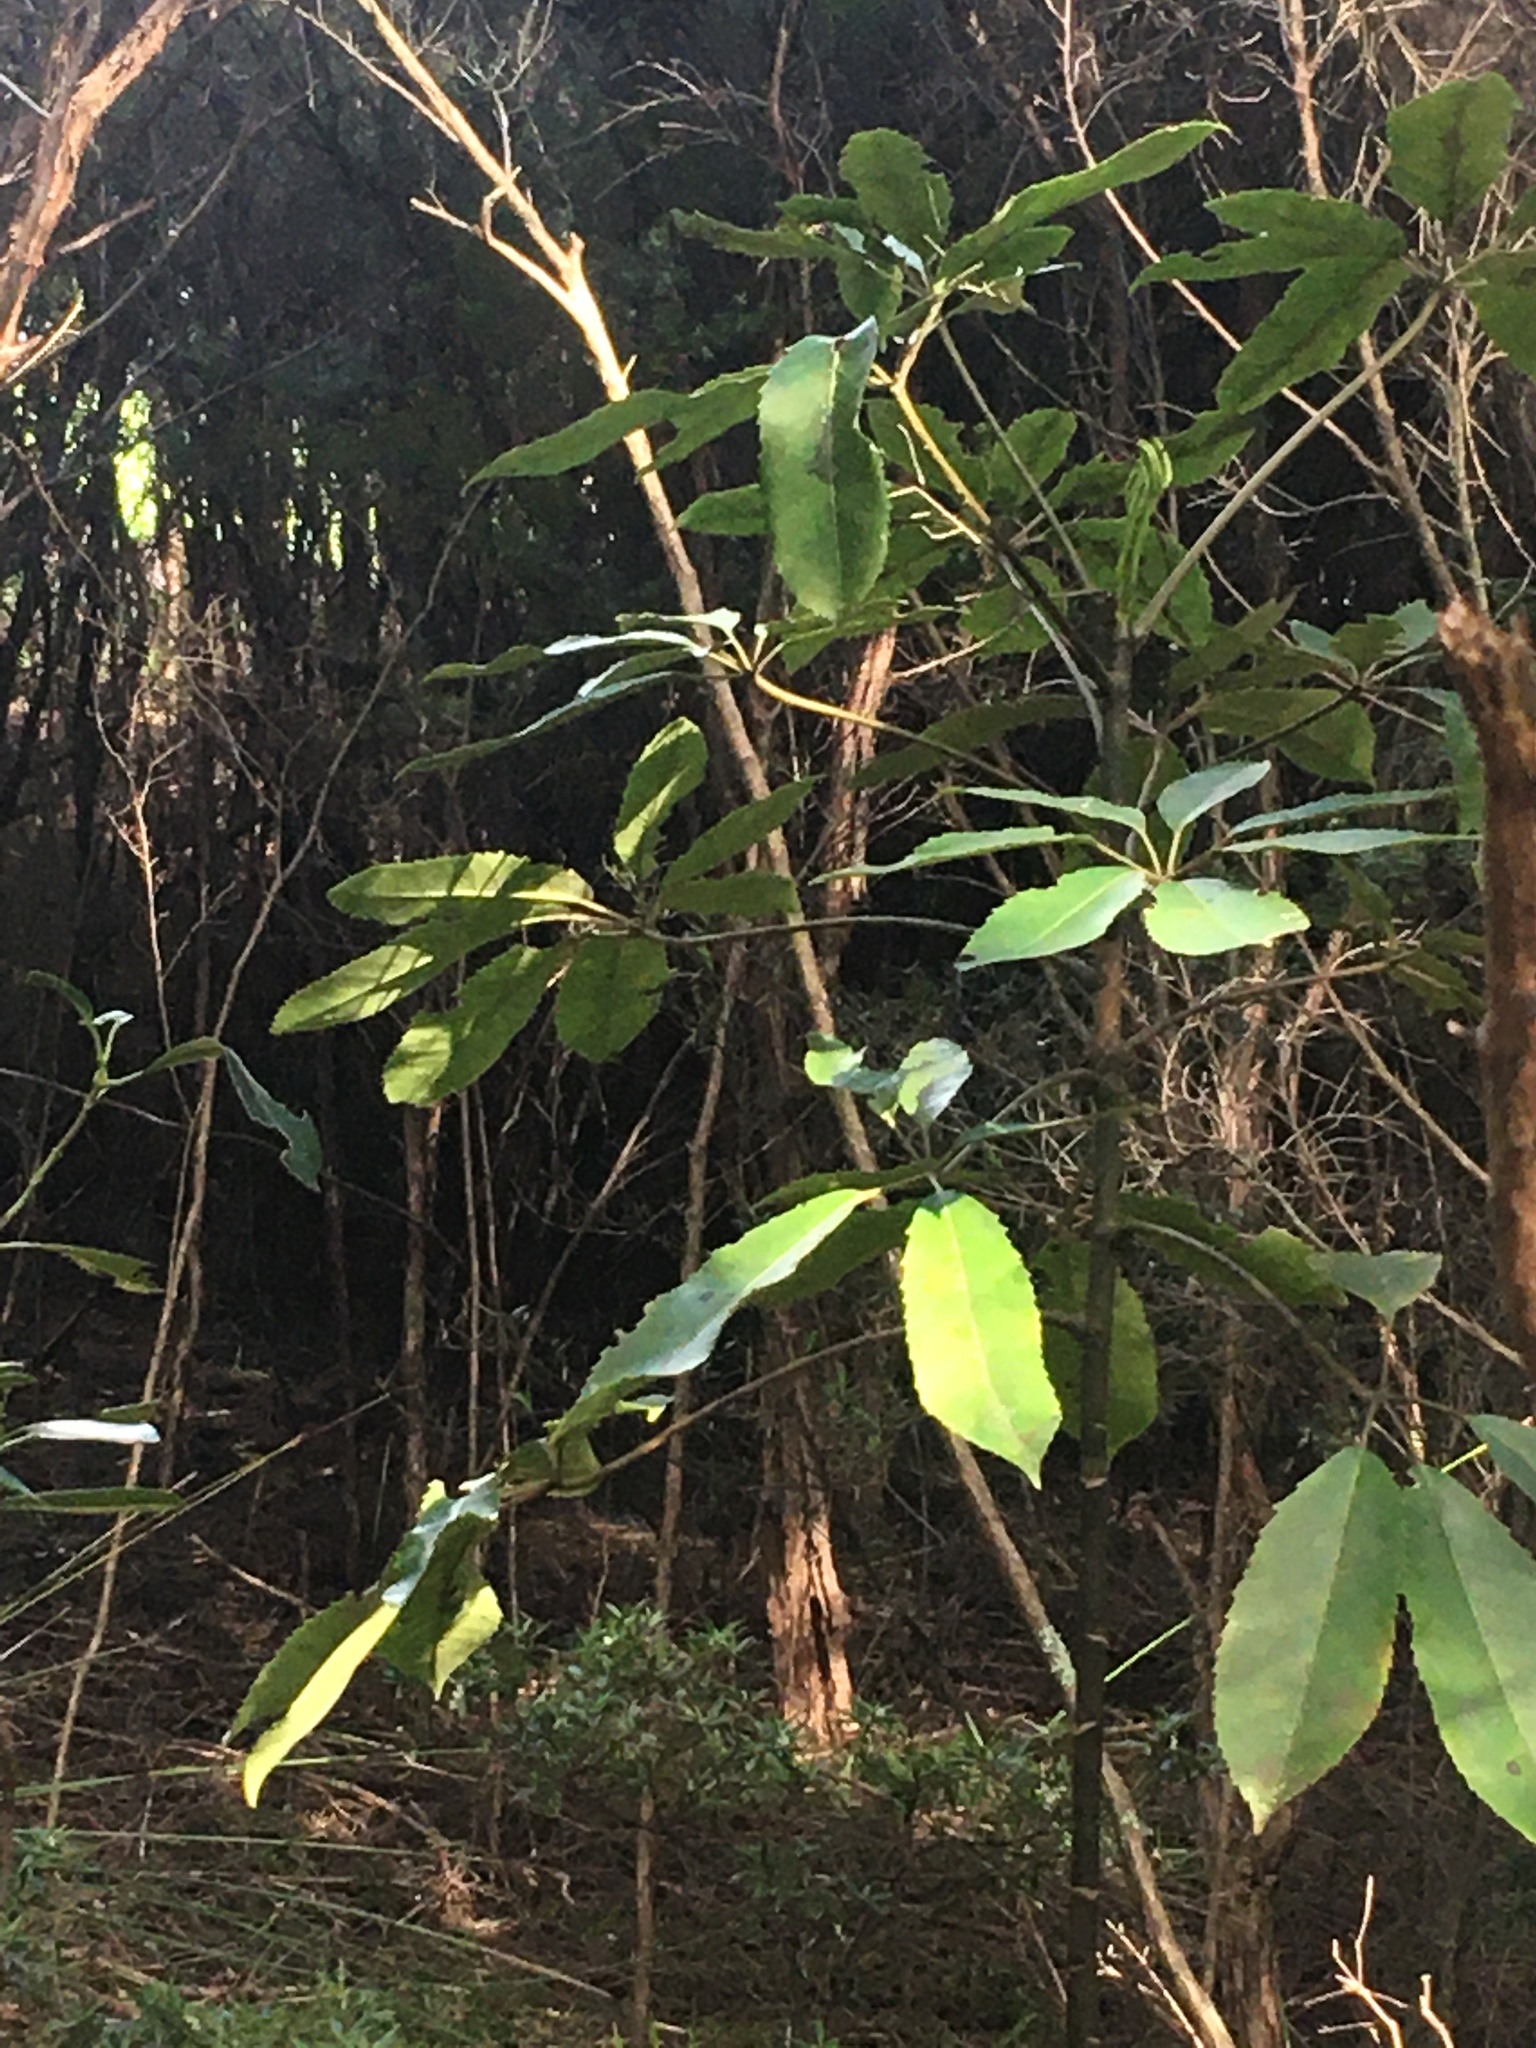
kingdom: Plantae
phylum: Tracheophyta
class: Magnoliopsida
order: Apiales
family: Araliaceae
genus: Neopanax
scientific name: Neopanax arboreus
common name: Five-fingers
